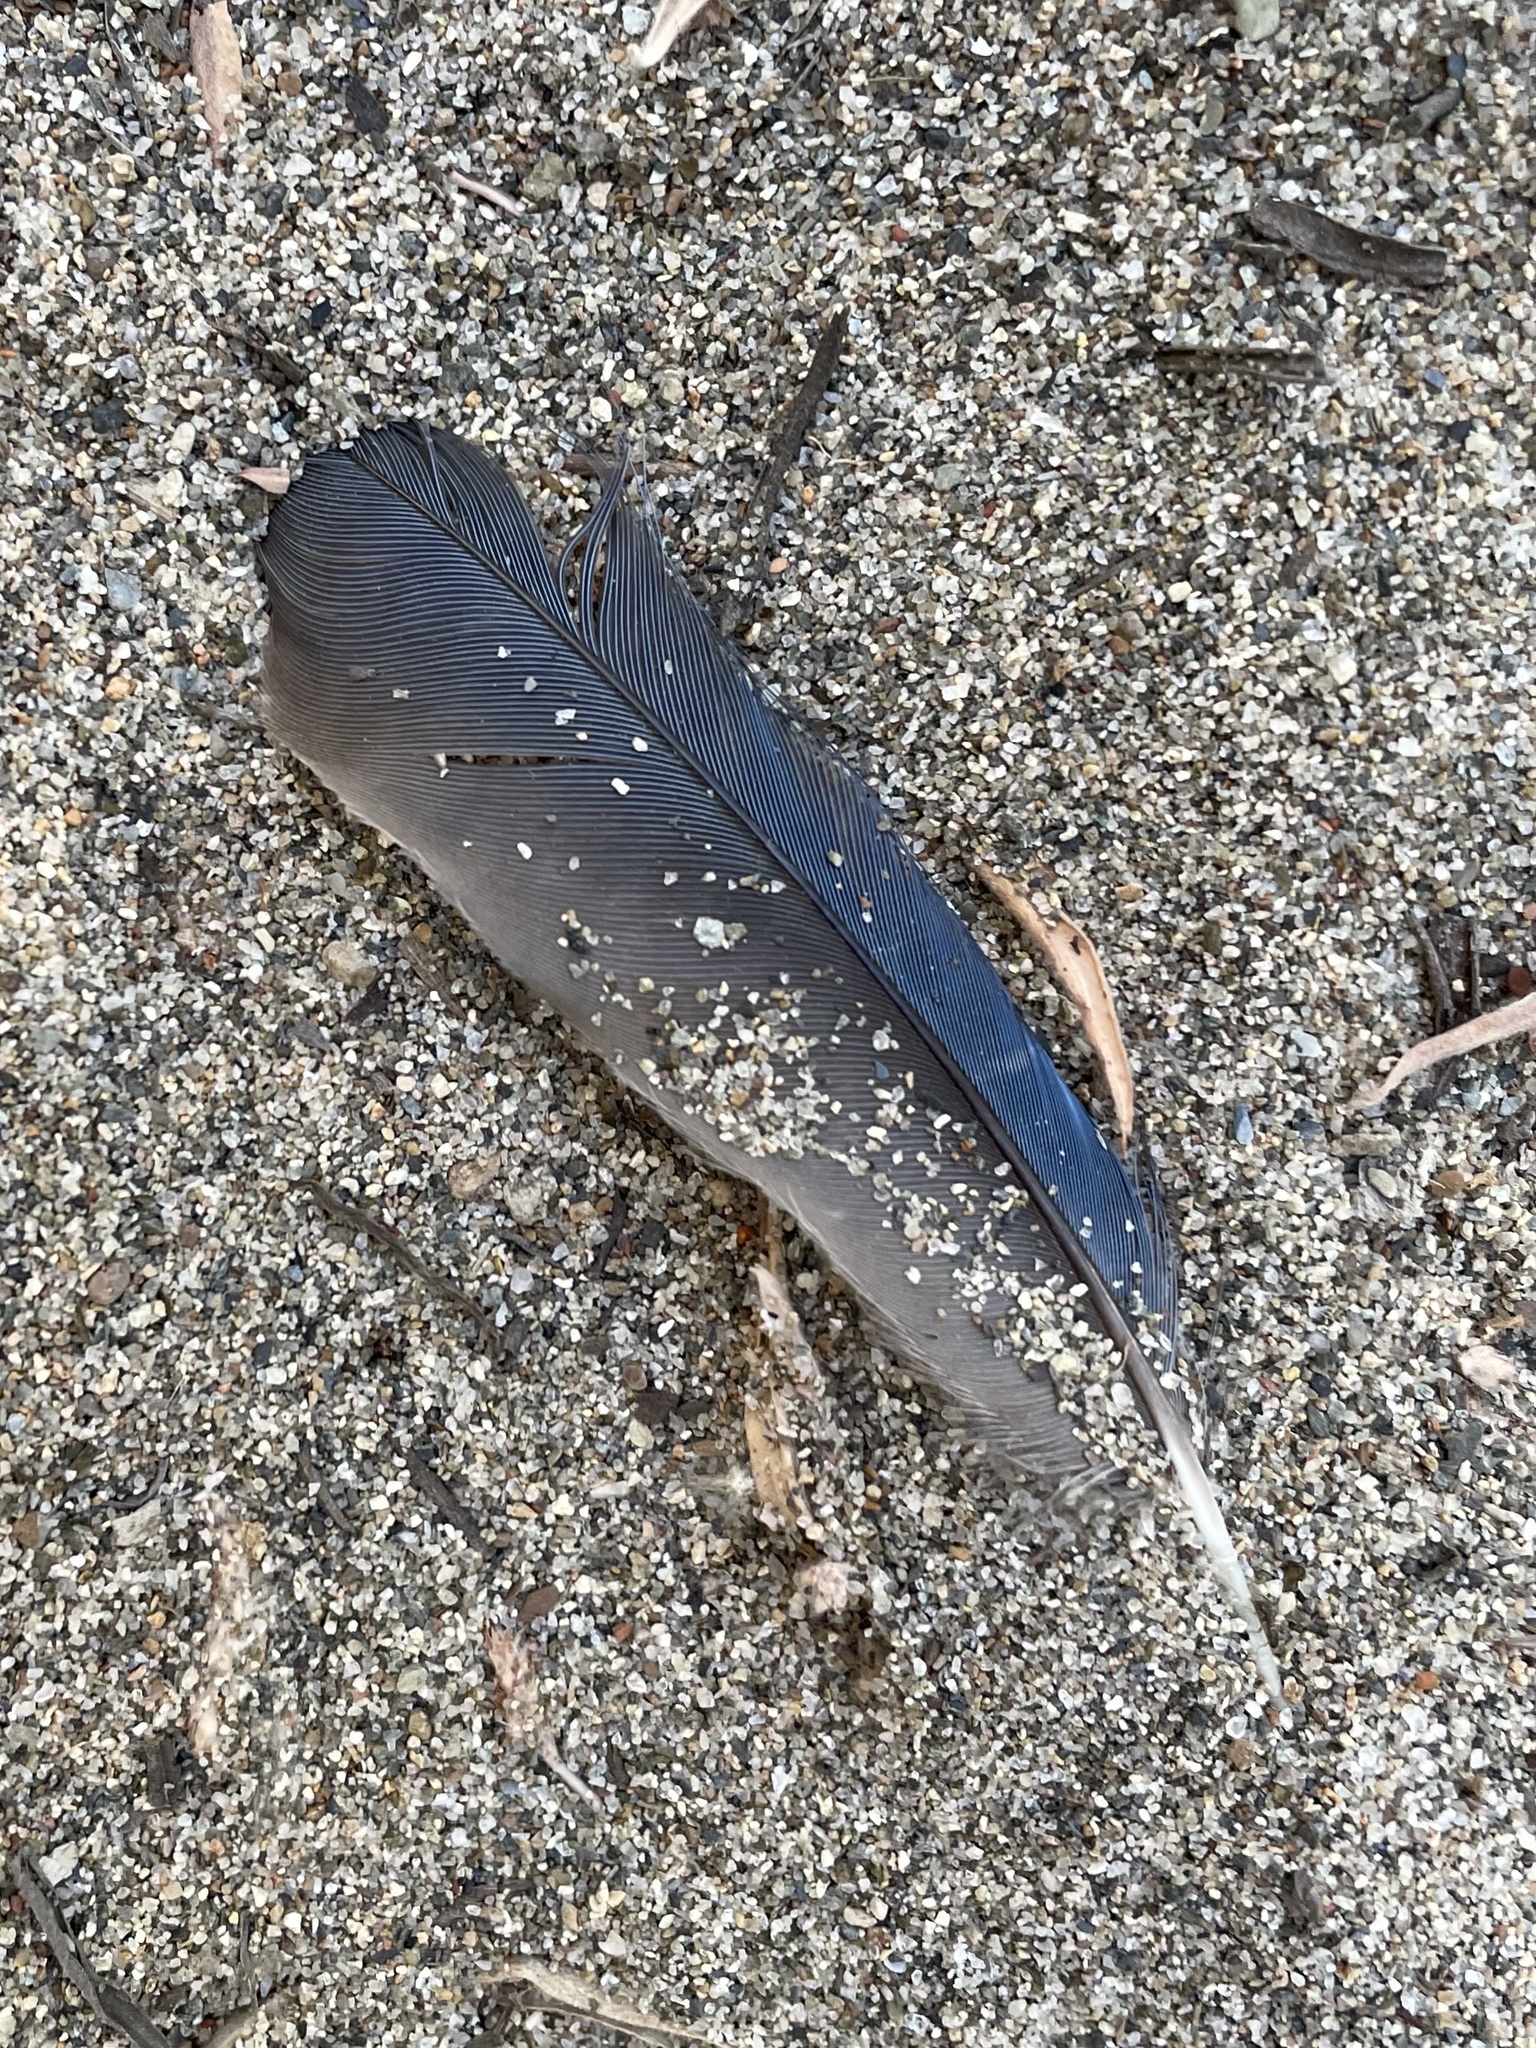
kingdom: Animalia
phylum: Chordata
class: Aves
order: Passeriformes
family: Corvidae
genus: Aphelocoma
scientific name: Aphelocoma californica
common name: California scrub-jay
